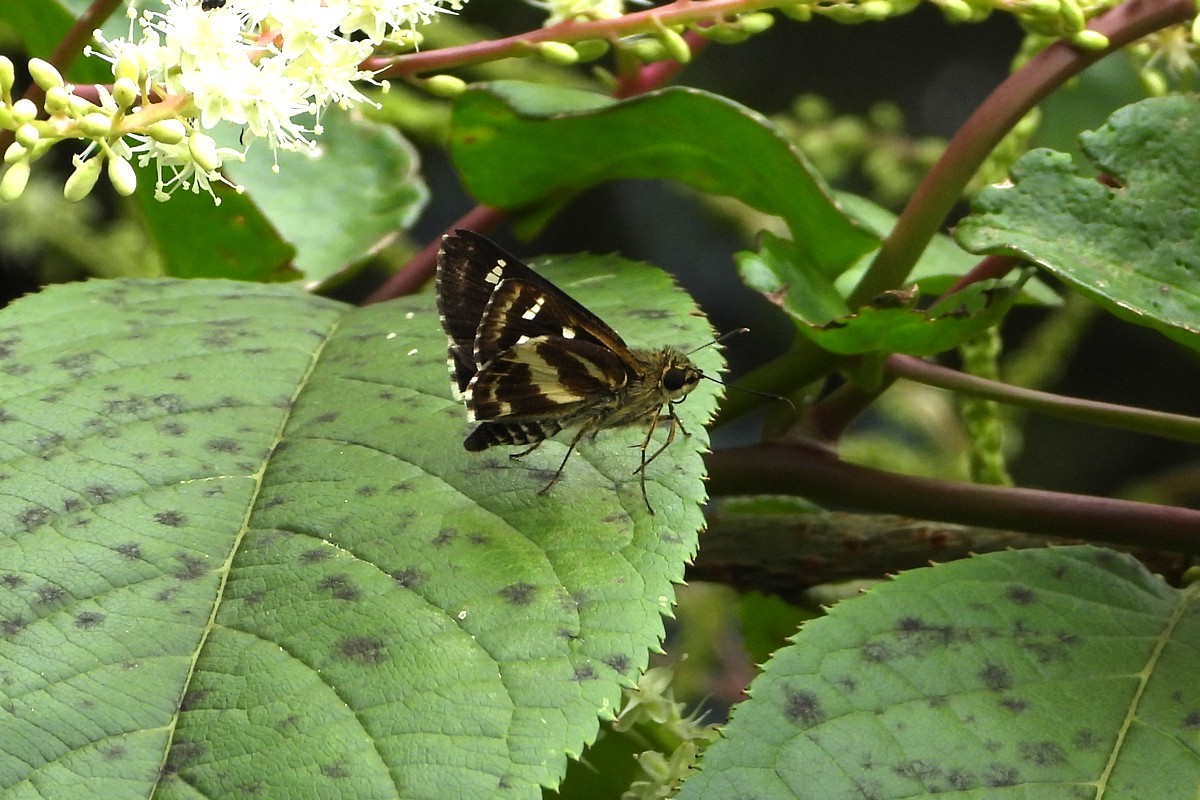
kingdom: Animalia
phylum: Arthropoda
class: Insecta
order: Lepidoptera
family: Hesperiidae
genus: Sebastonyma
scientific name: Sebastonyma dolopia
